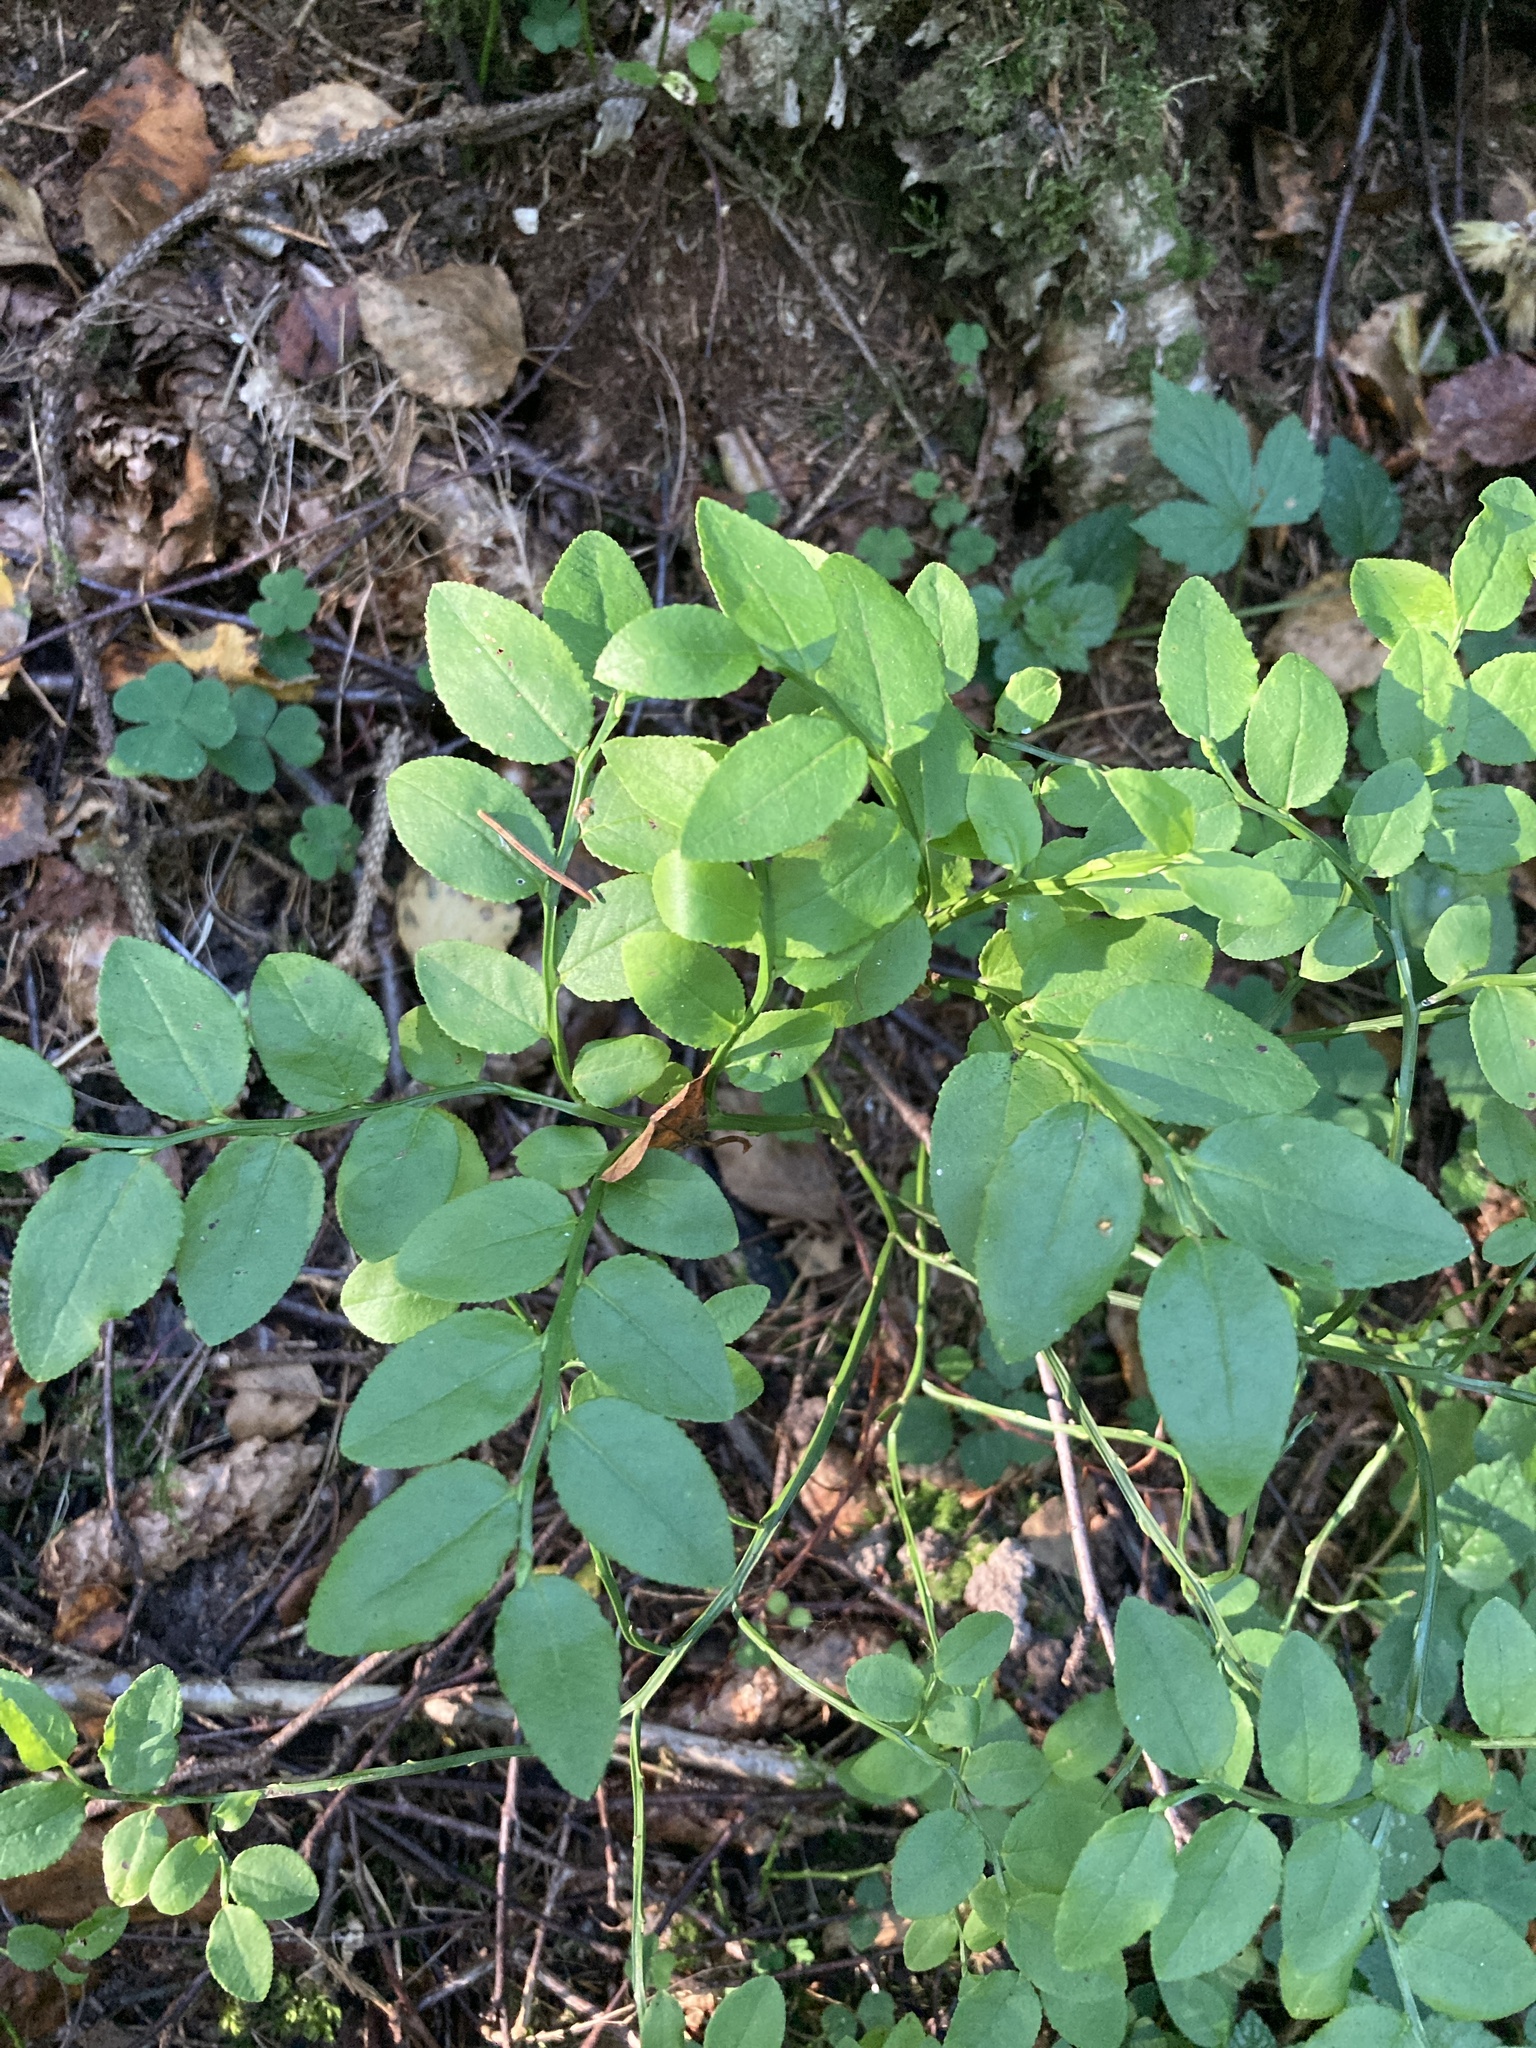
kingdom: Plantae
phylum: Tracheophyta
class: Magnoliopsida
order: Ericales
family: Ericaceae
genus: Vaccinium
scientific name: Vaccinium myrtillus
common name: Bilberry
